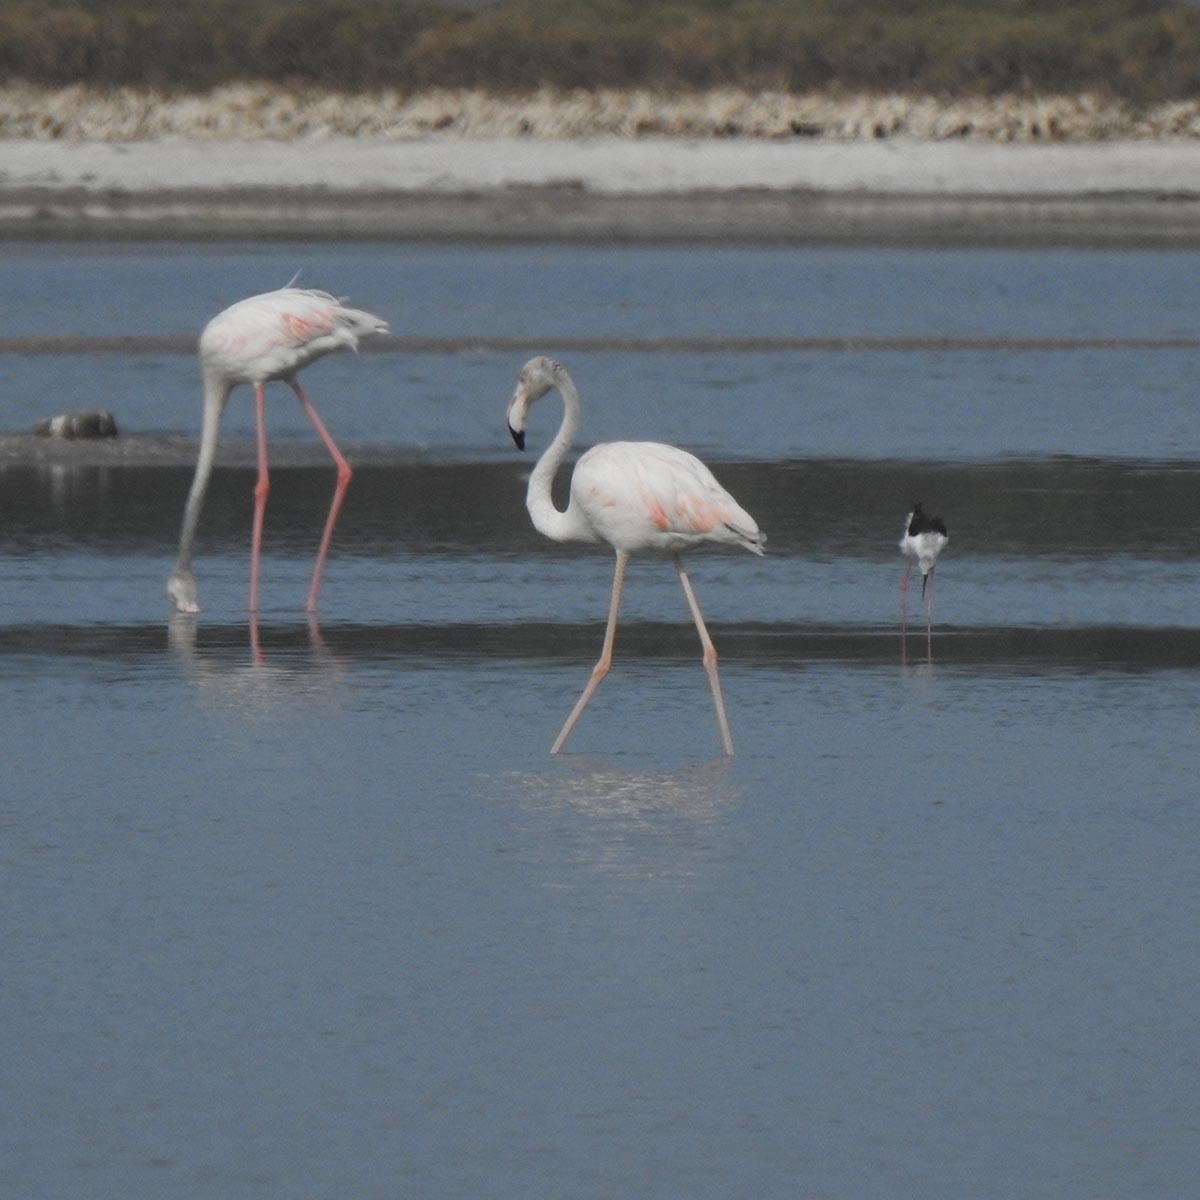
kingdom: Animalia
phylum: Chordata
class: Aves
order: Phoenicopteriformes
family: Phoenicopteridae
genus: Phoenicopterus
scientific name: Phoenicopterus roseus
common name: Greater flamingo
